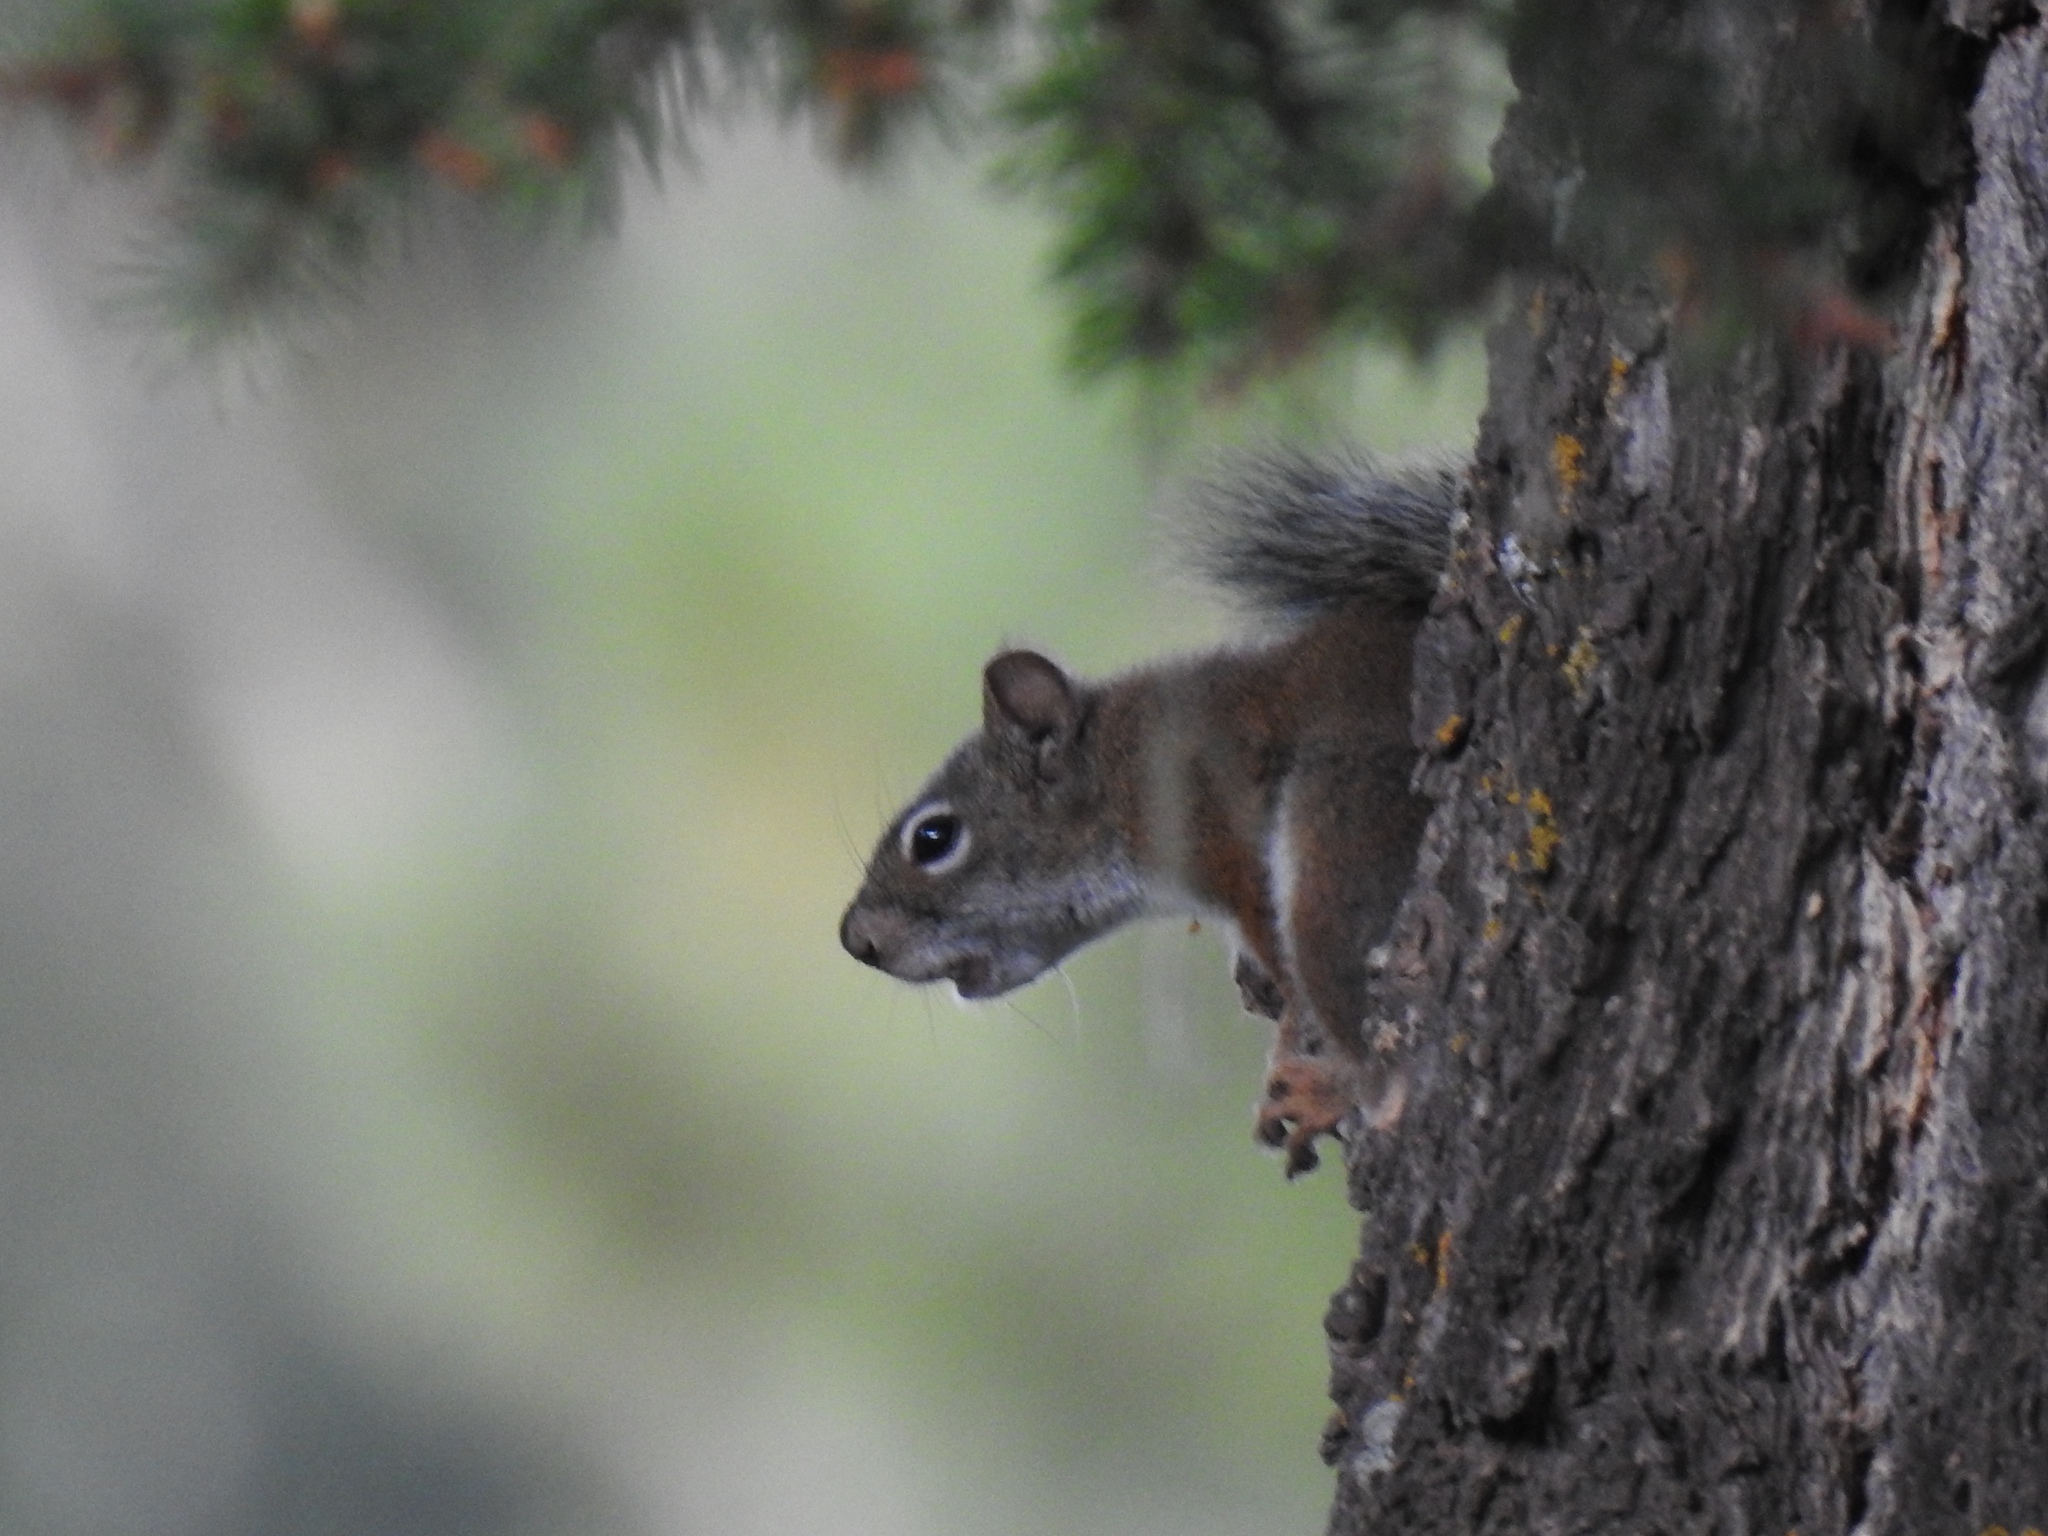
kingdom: Animalia
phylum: Chordata
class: Mammalia
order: Rodentia
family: Sciuridae
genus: Tamiasciurus
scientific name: Tamiasciurus hudsonicus
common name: Red squirrel
